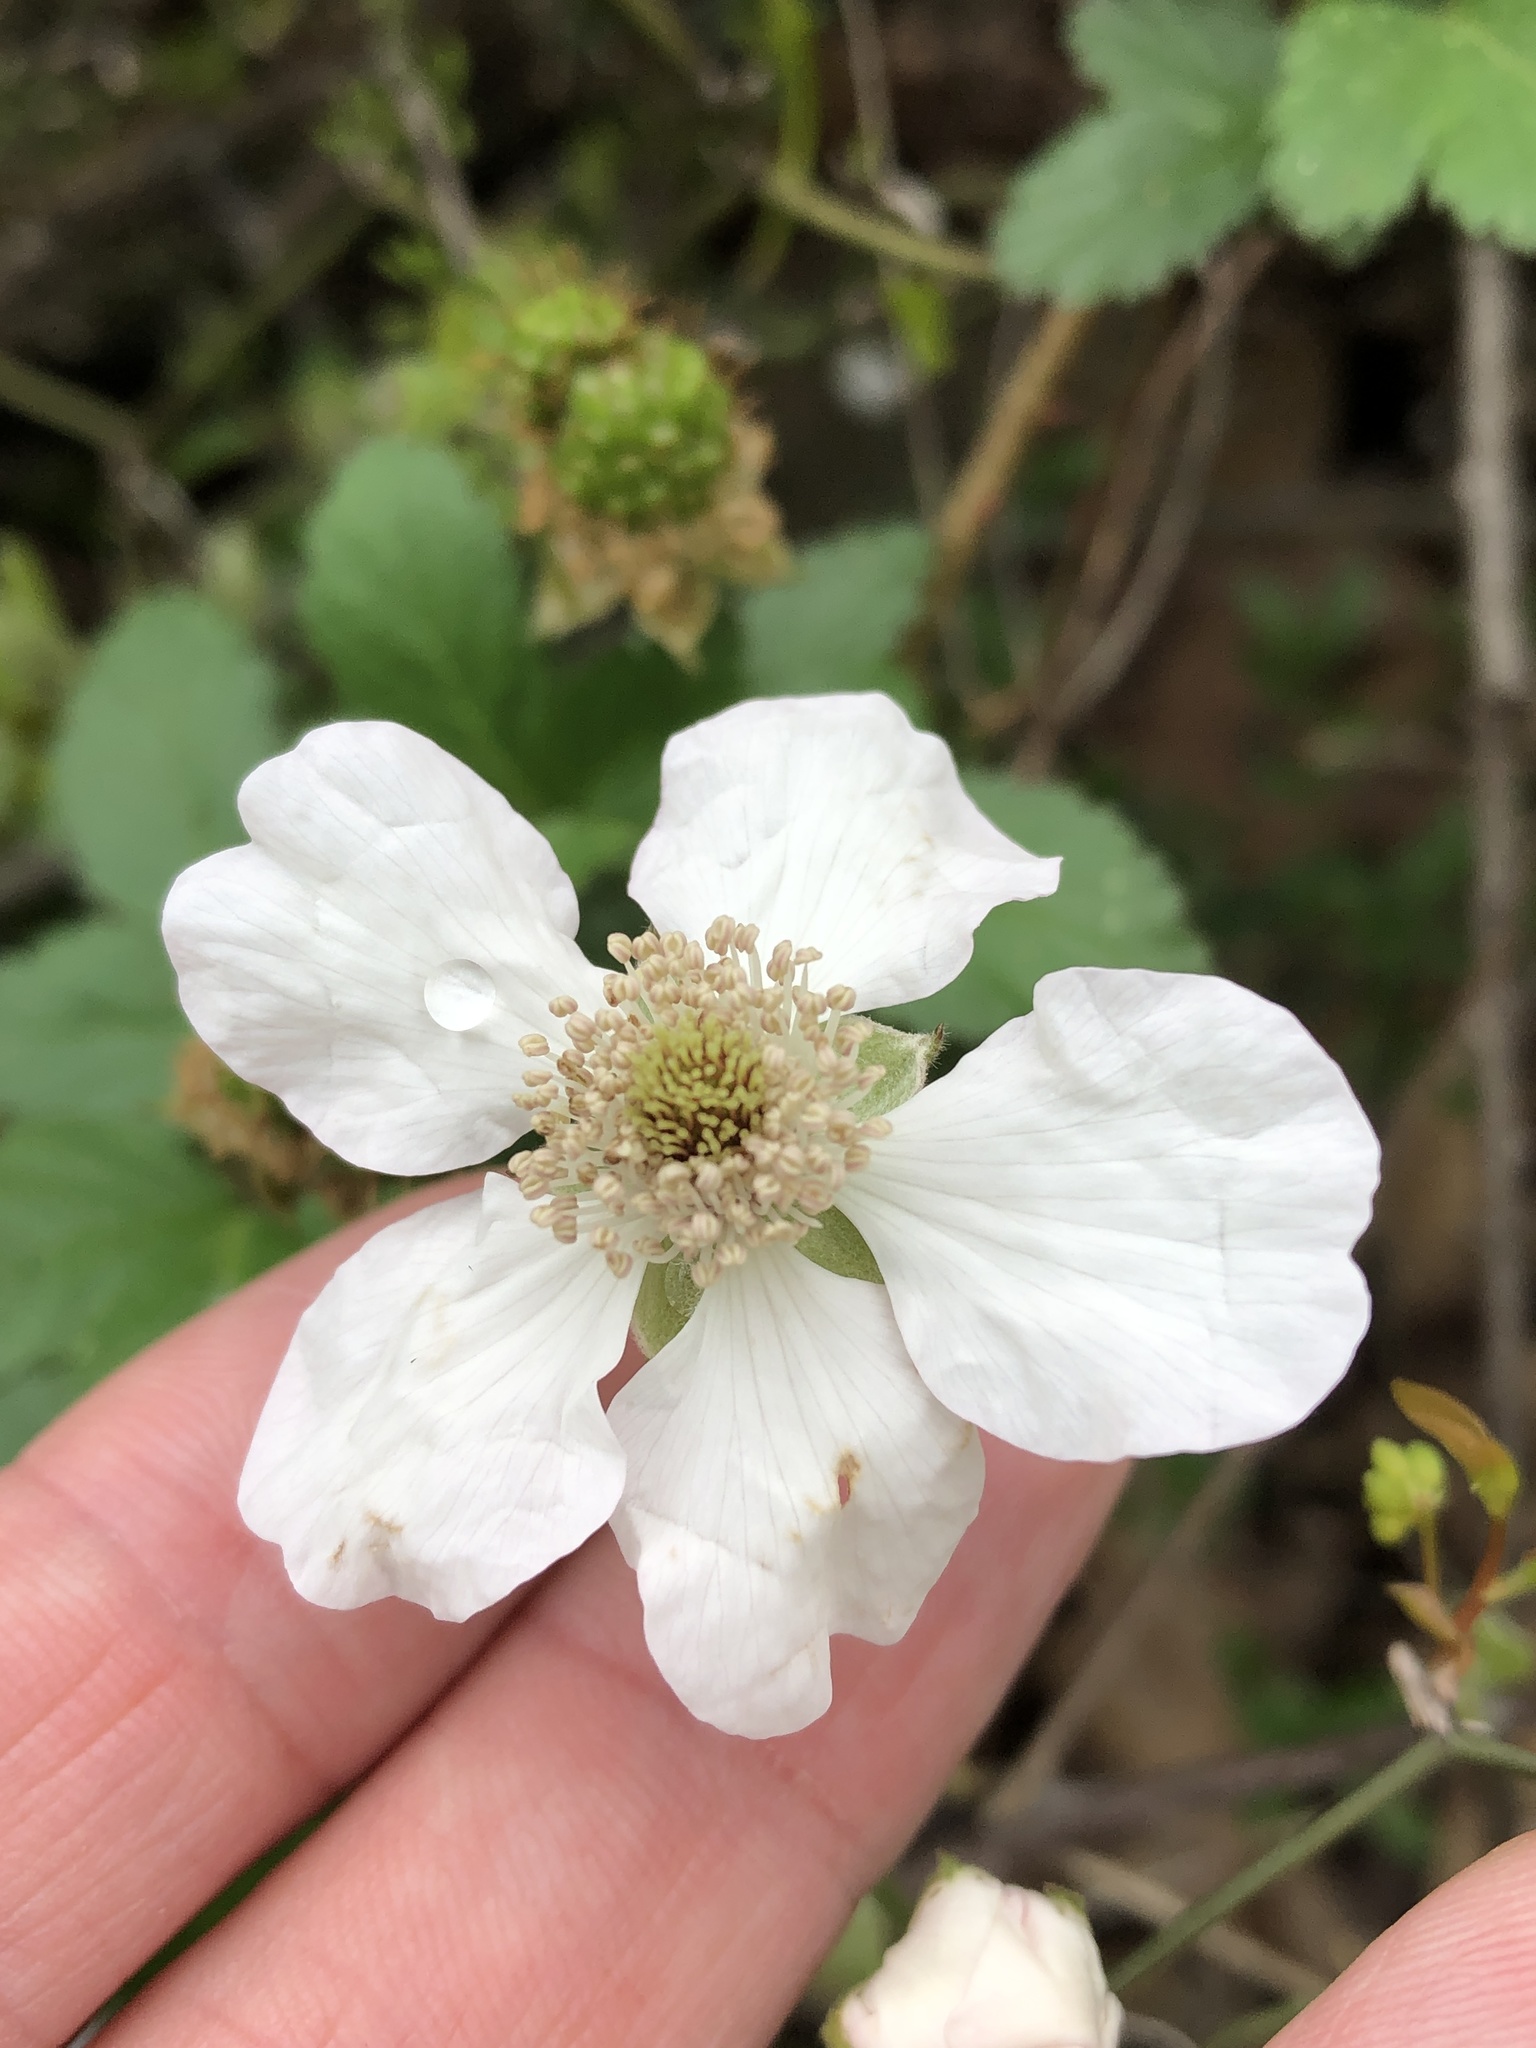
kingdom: Plantae
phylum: Tracheophyta
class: Magnoliopsida
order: Rosales
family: Rosaceae
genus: Rubus
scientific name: Rubus trivialis
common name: Southern dewberry
